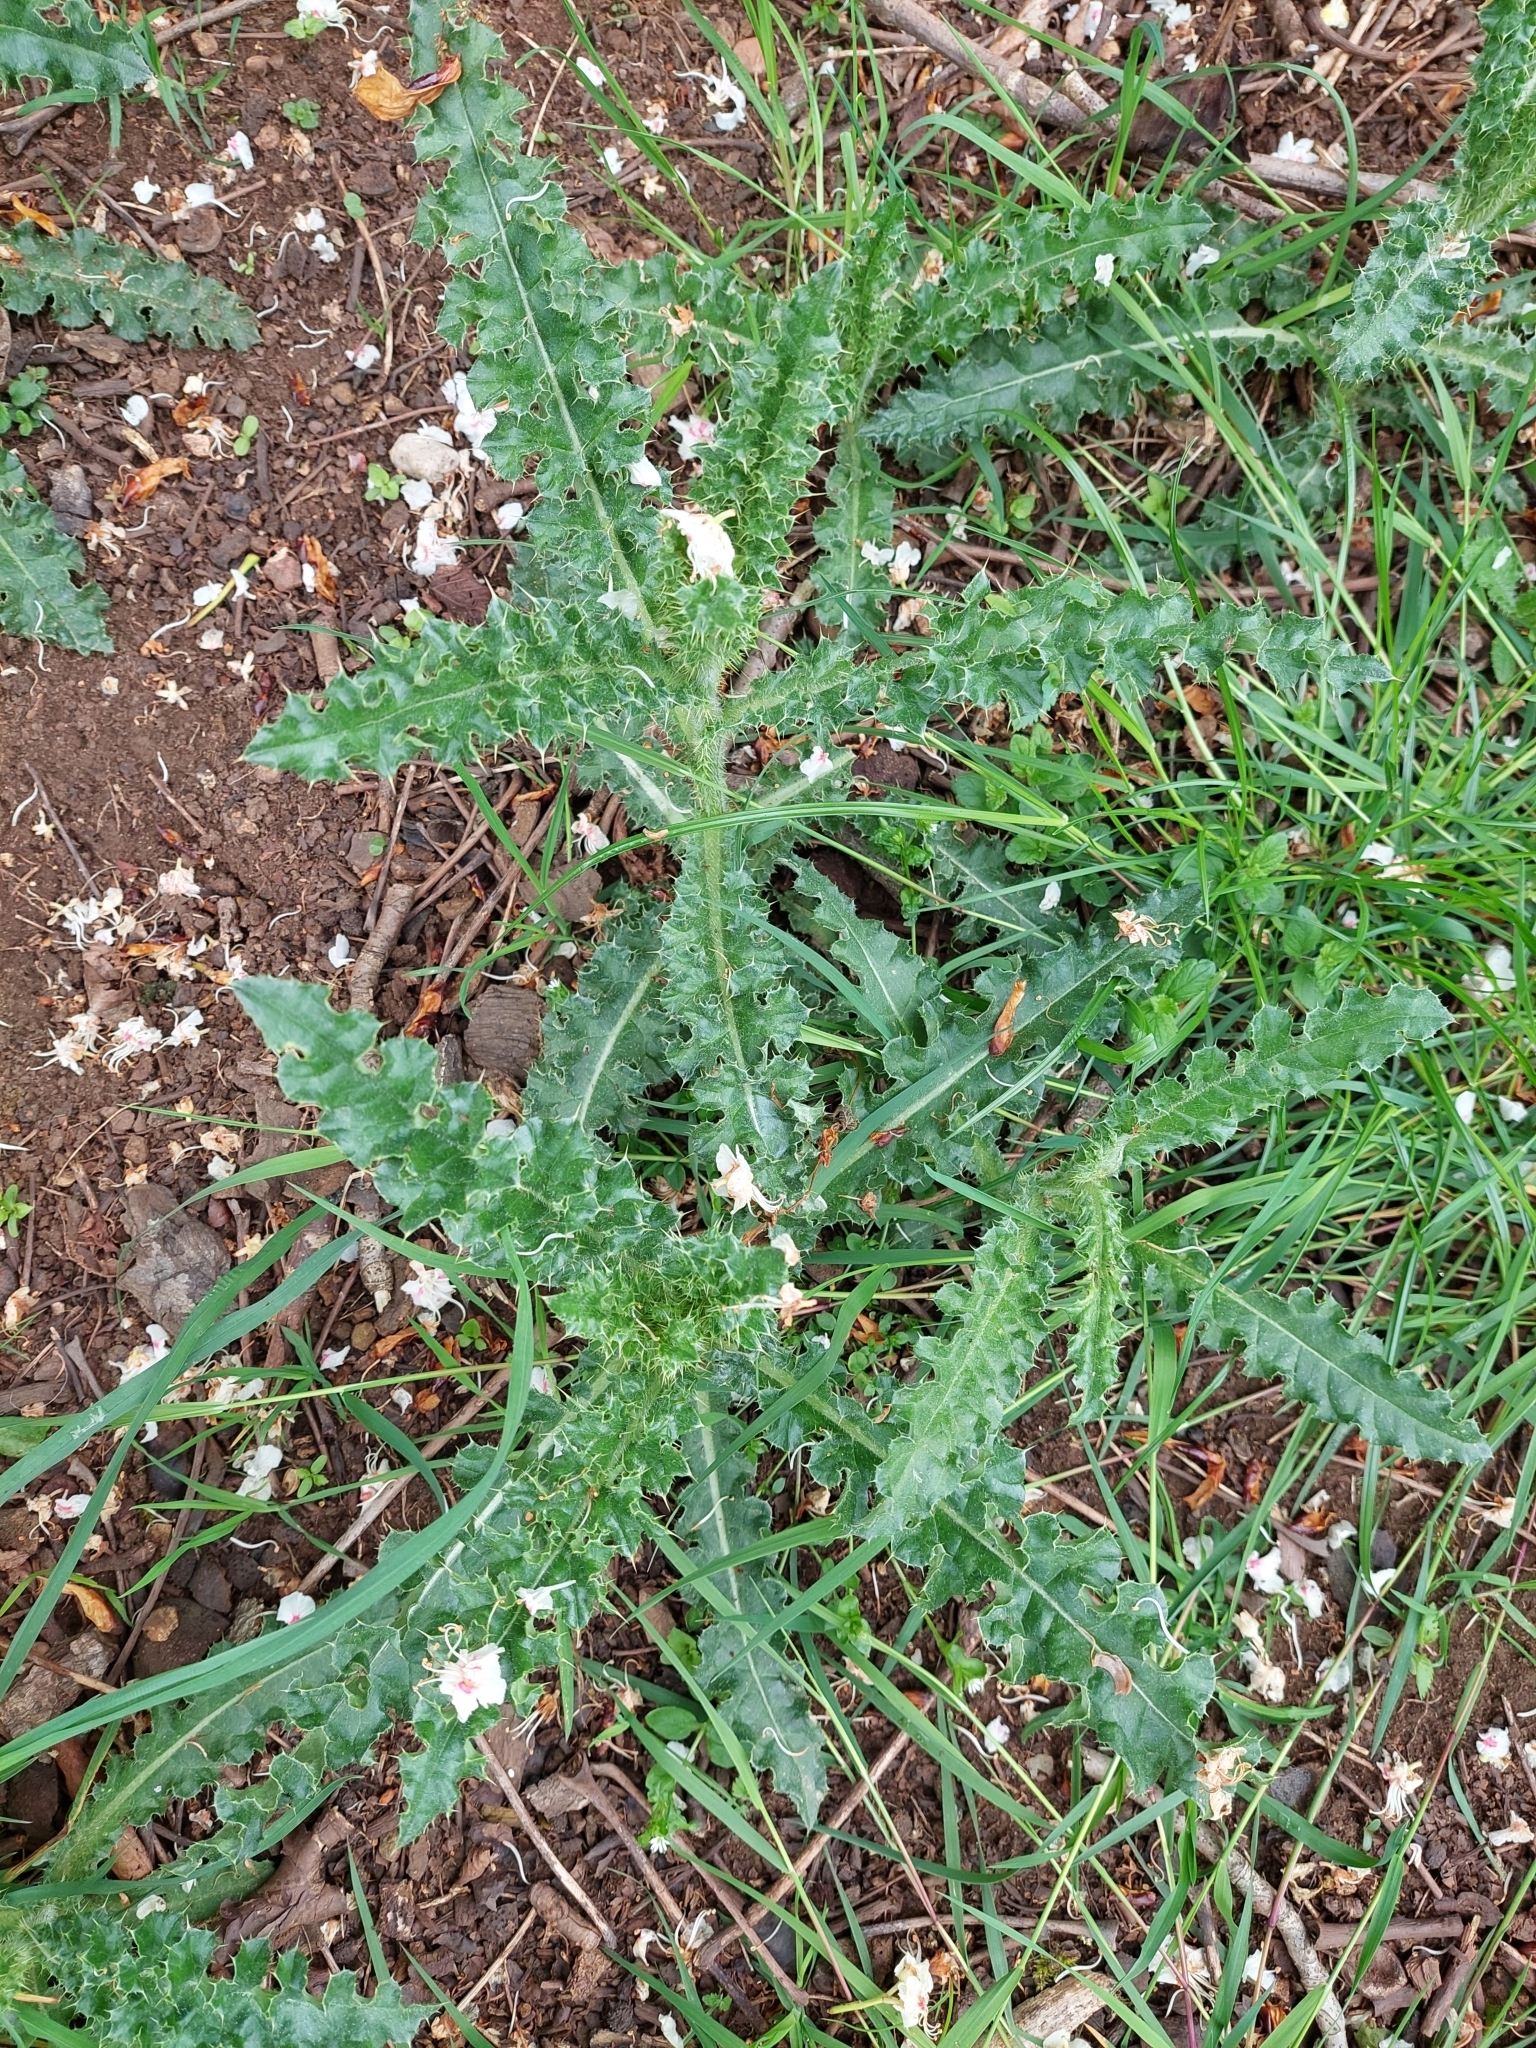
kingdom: Plantae
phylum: Tracheophyta
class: Magnoliopsida
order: Asterales
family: Asteraceae
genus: Cirsium
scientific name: Cirsium arvense
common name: Creeping thistle
